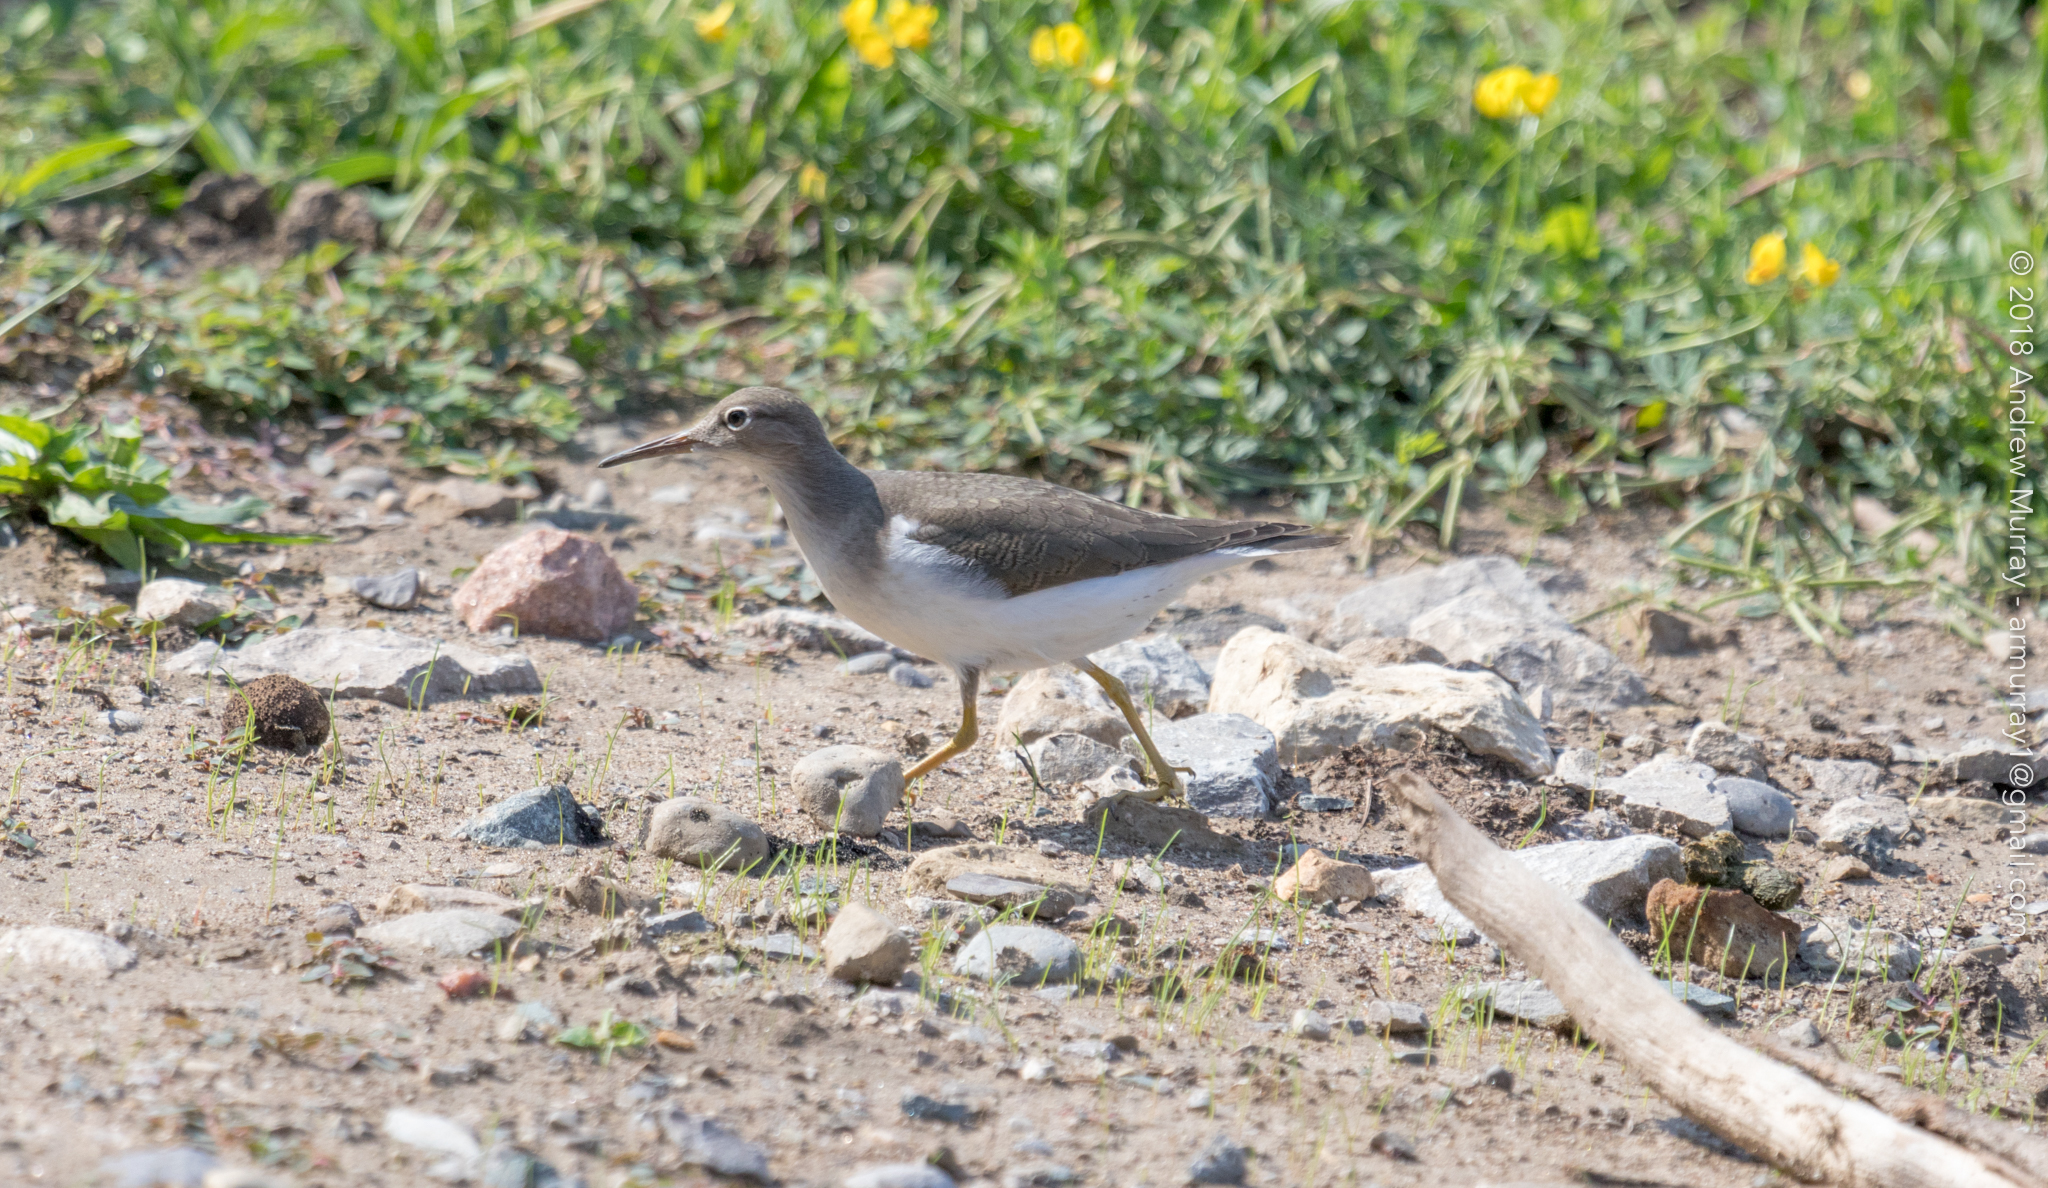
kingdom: Animalia
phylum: Chordata
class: Aves
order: Charadriiformes
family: Scolopacidae
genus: Actitis
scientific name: Actitis macularius
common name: Spotted sandpiper
